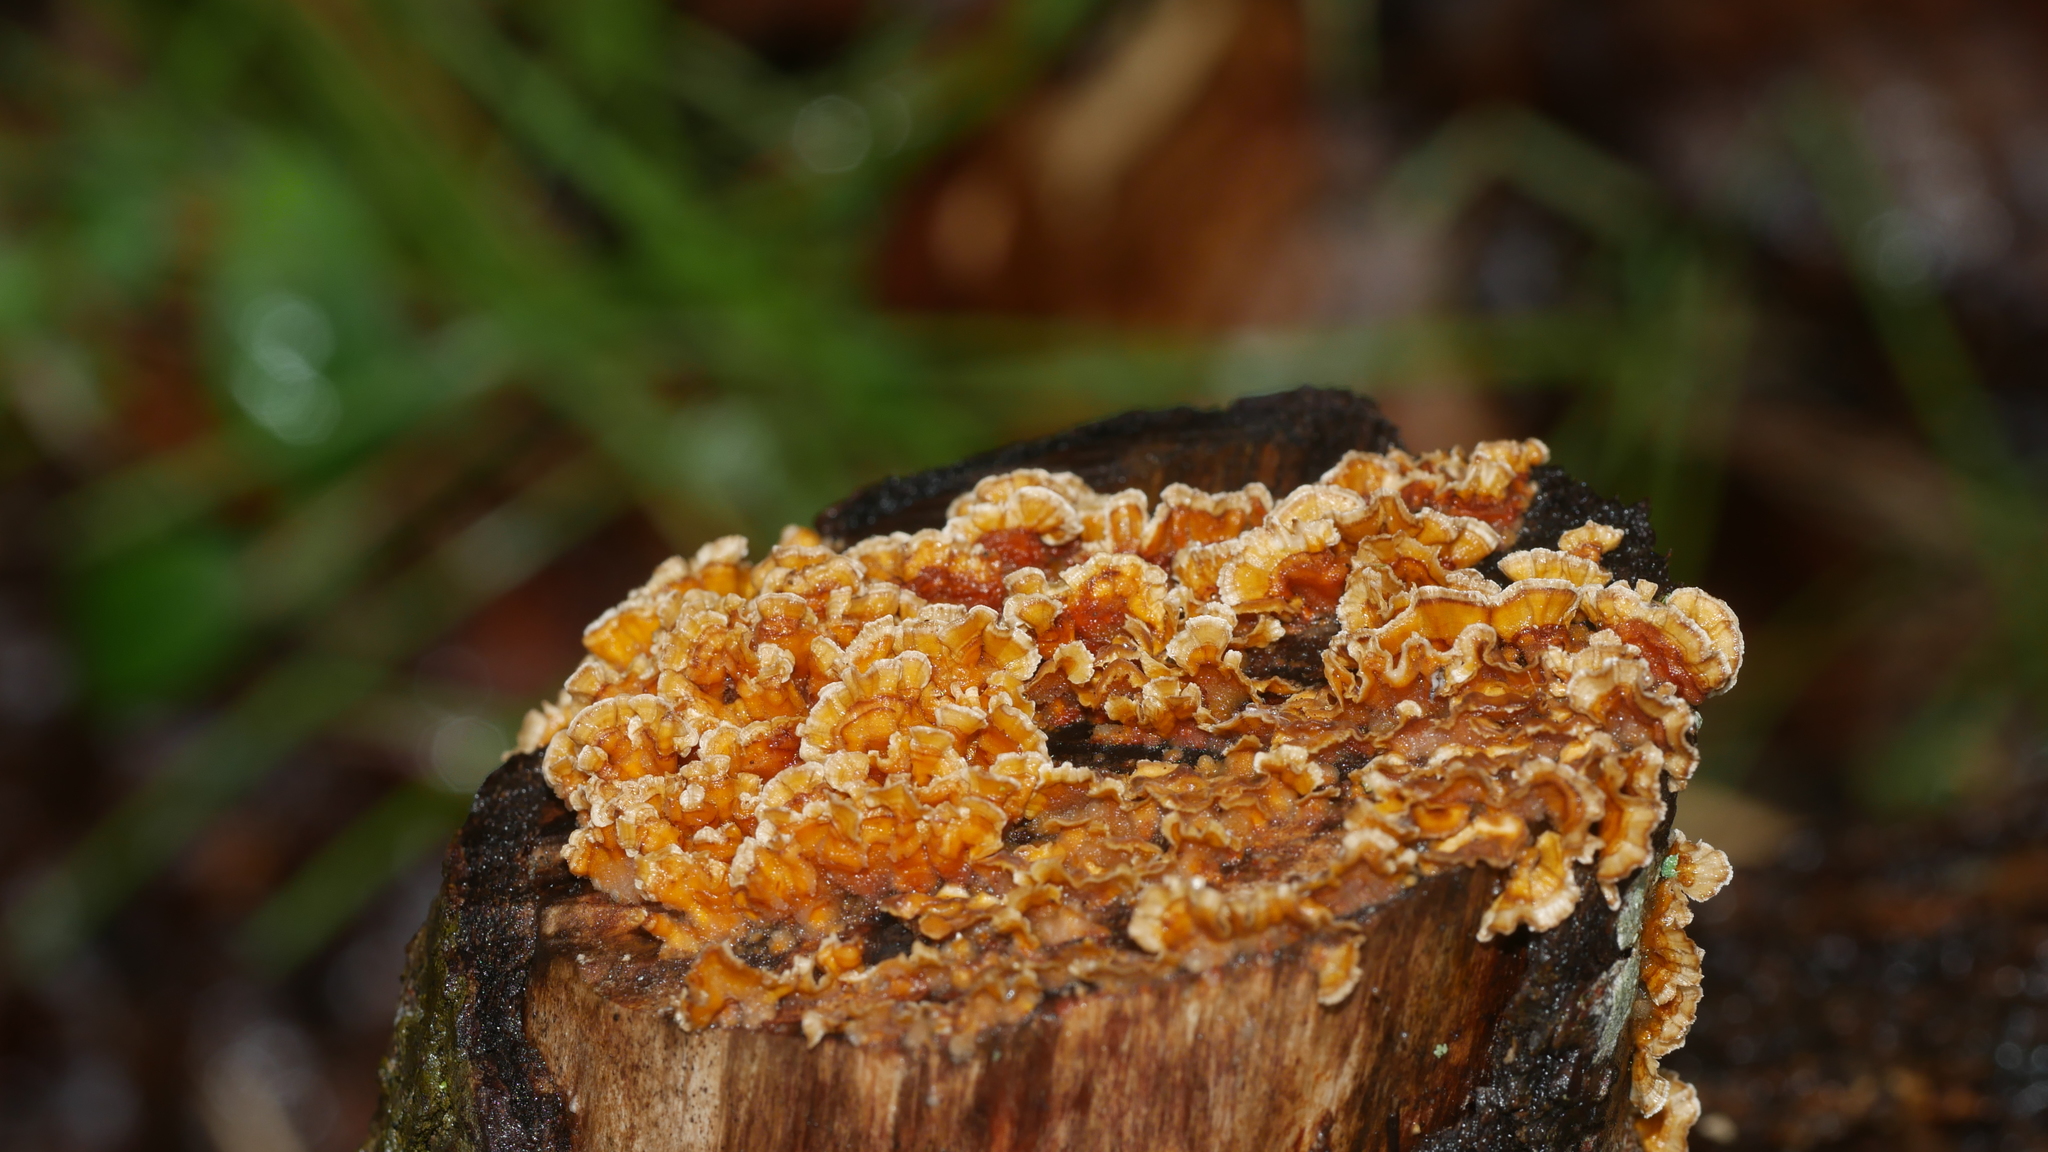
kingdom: Fungi
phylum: Basidiomycota
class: Agaricomycetes
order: Russulales
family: Stereaceae
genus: Stereum
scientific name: Stereum complicatum
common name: Crowded parchment
